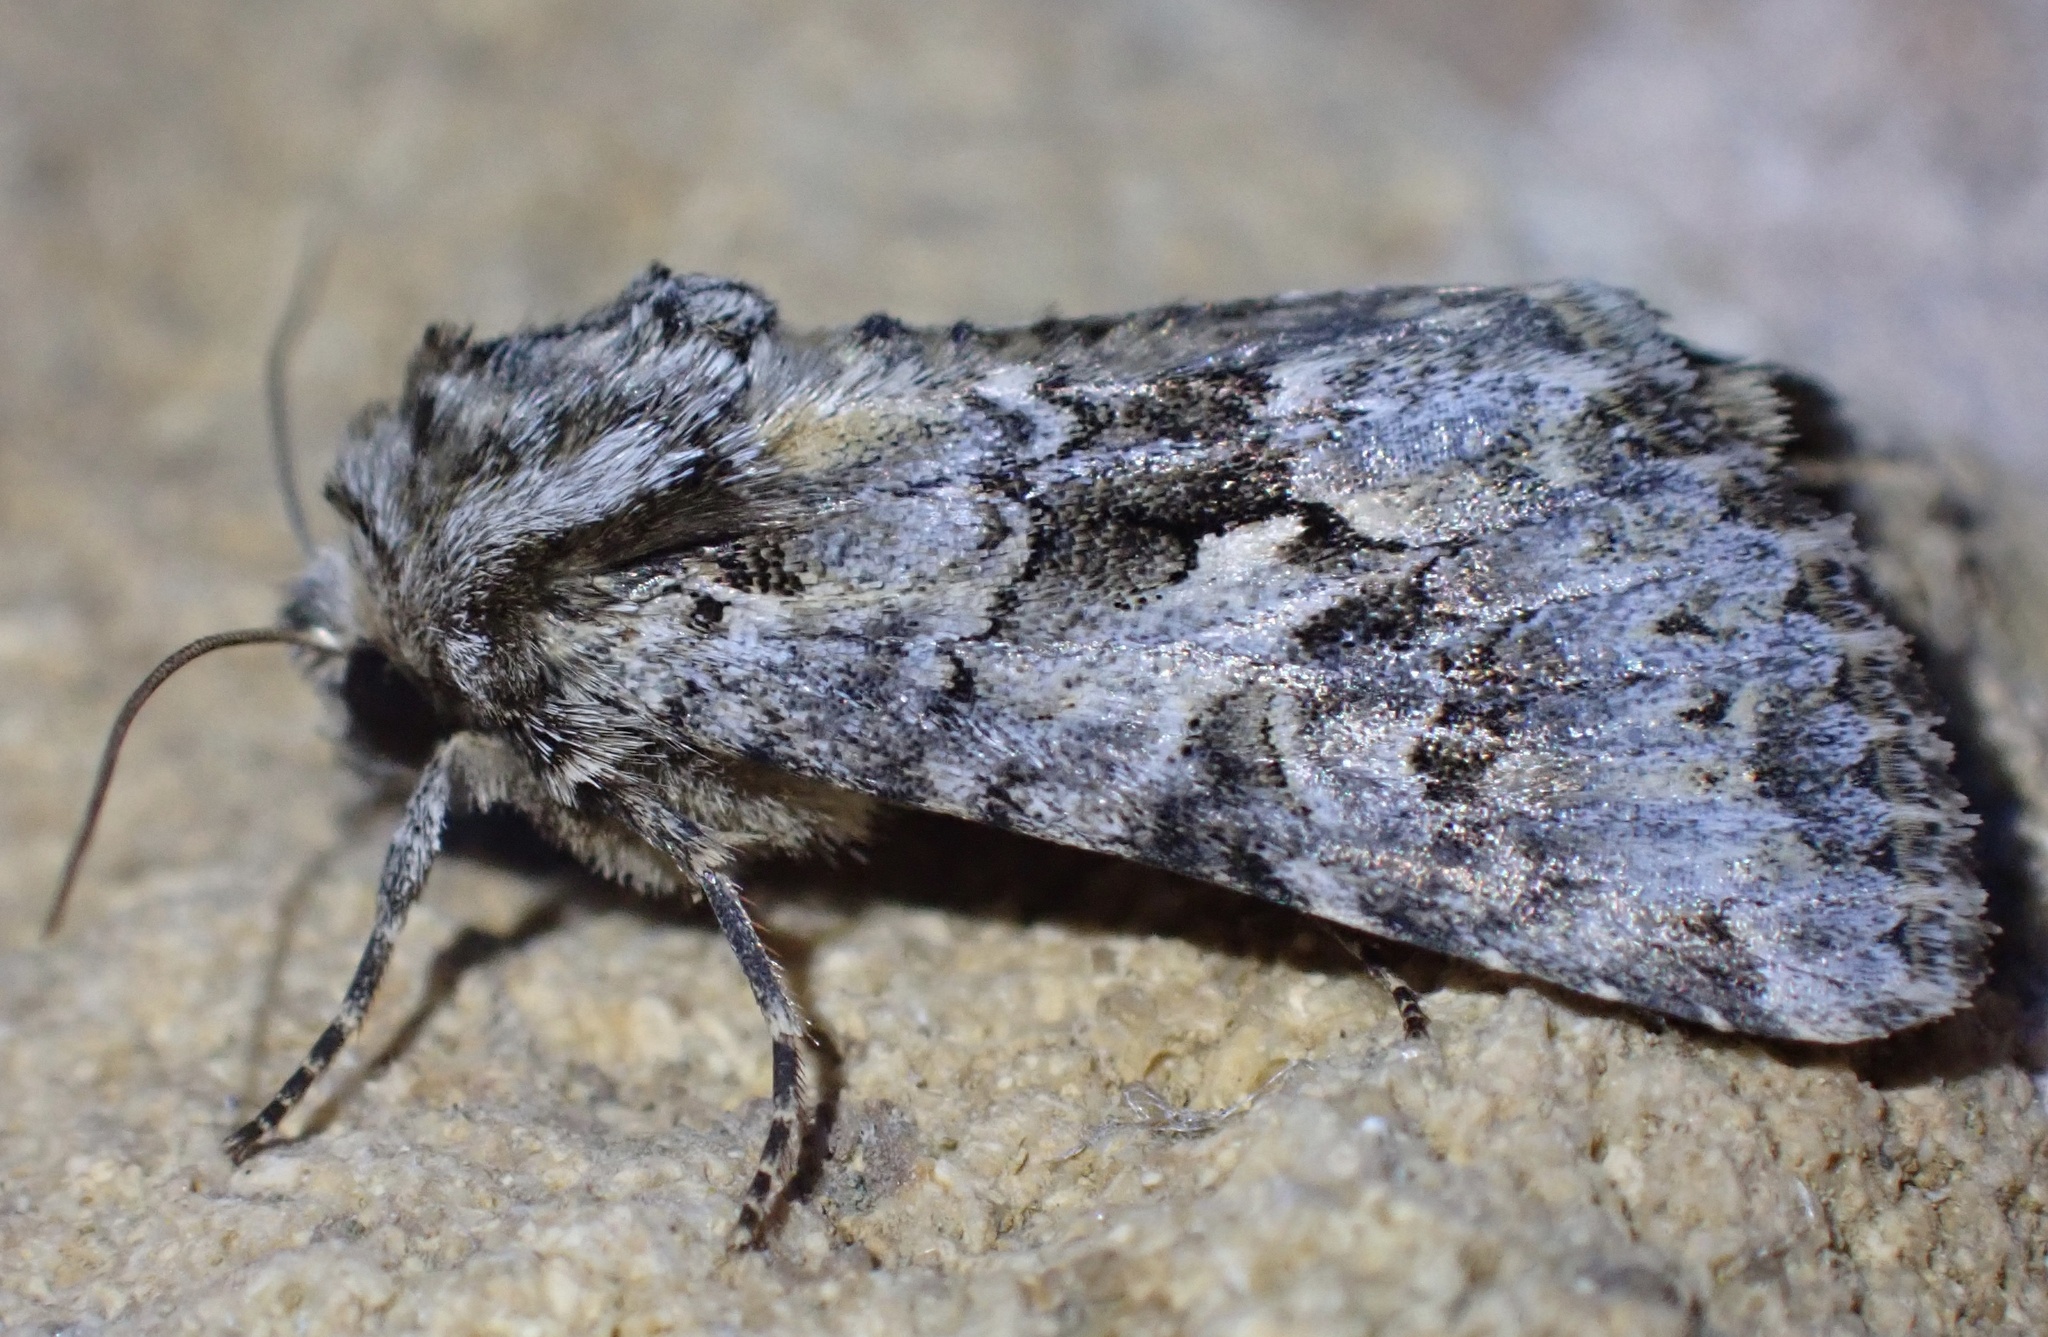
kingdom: Animalia
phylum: Arthropoda
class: Insecta
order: Lepidoptera
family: Noctuidae
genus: Hada
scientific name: Hada plebeja
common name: Shears
